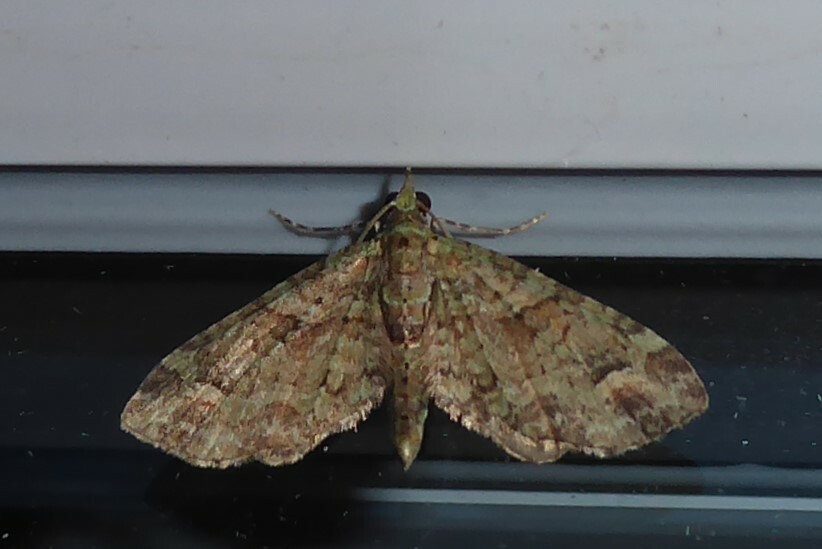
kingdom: Animalia
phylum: Arthropoda
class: Insecta
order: Lepidoptera
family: Geometridae
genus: Idaea
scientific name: Idaea mutanda
